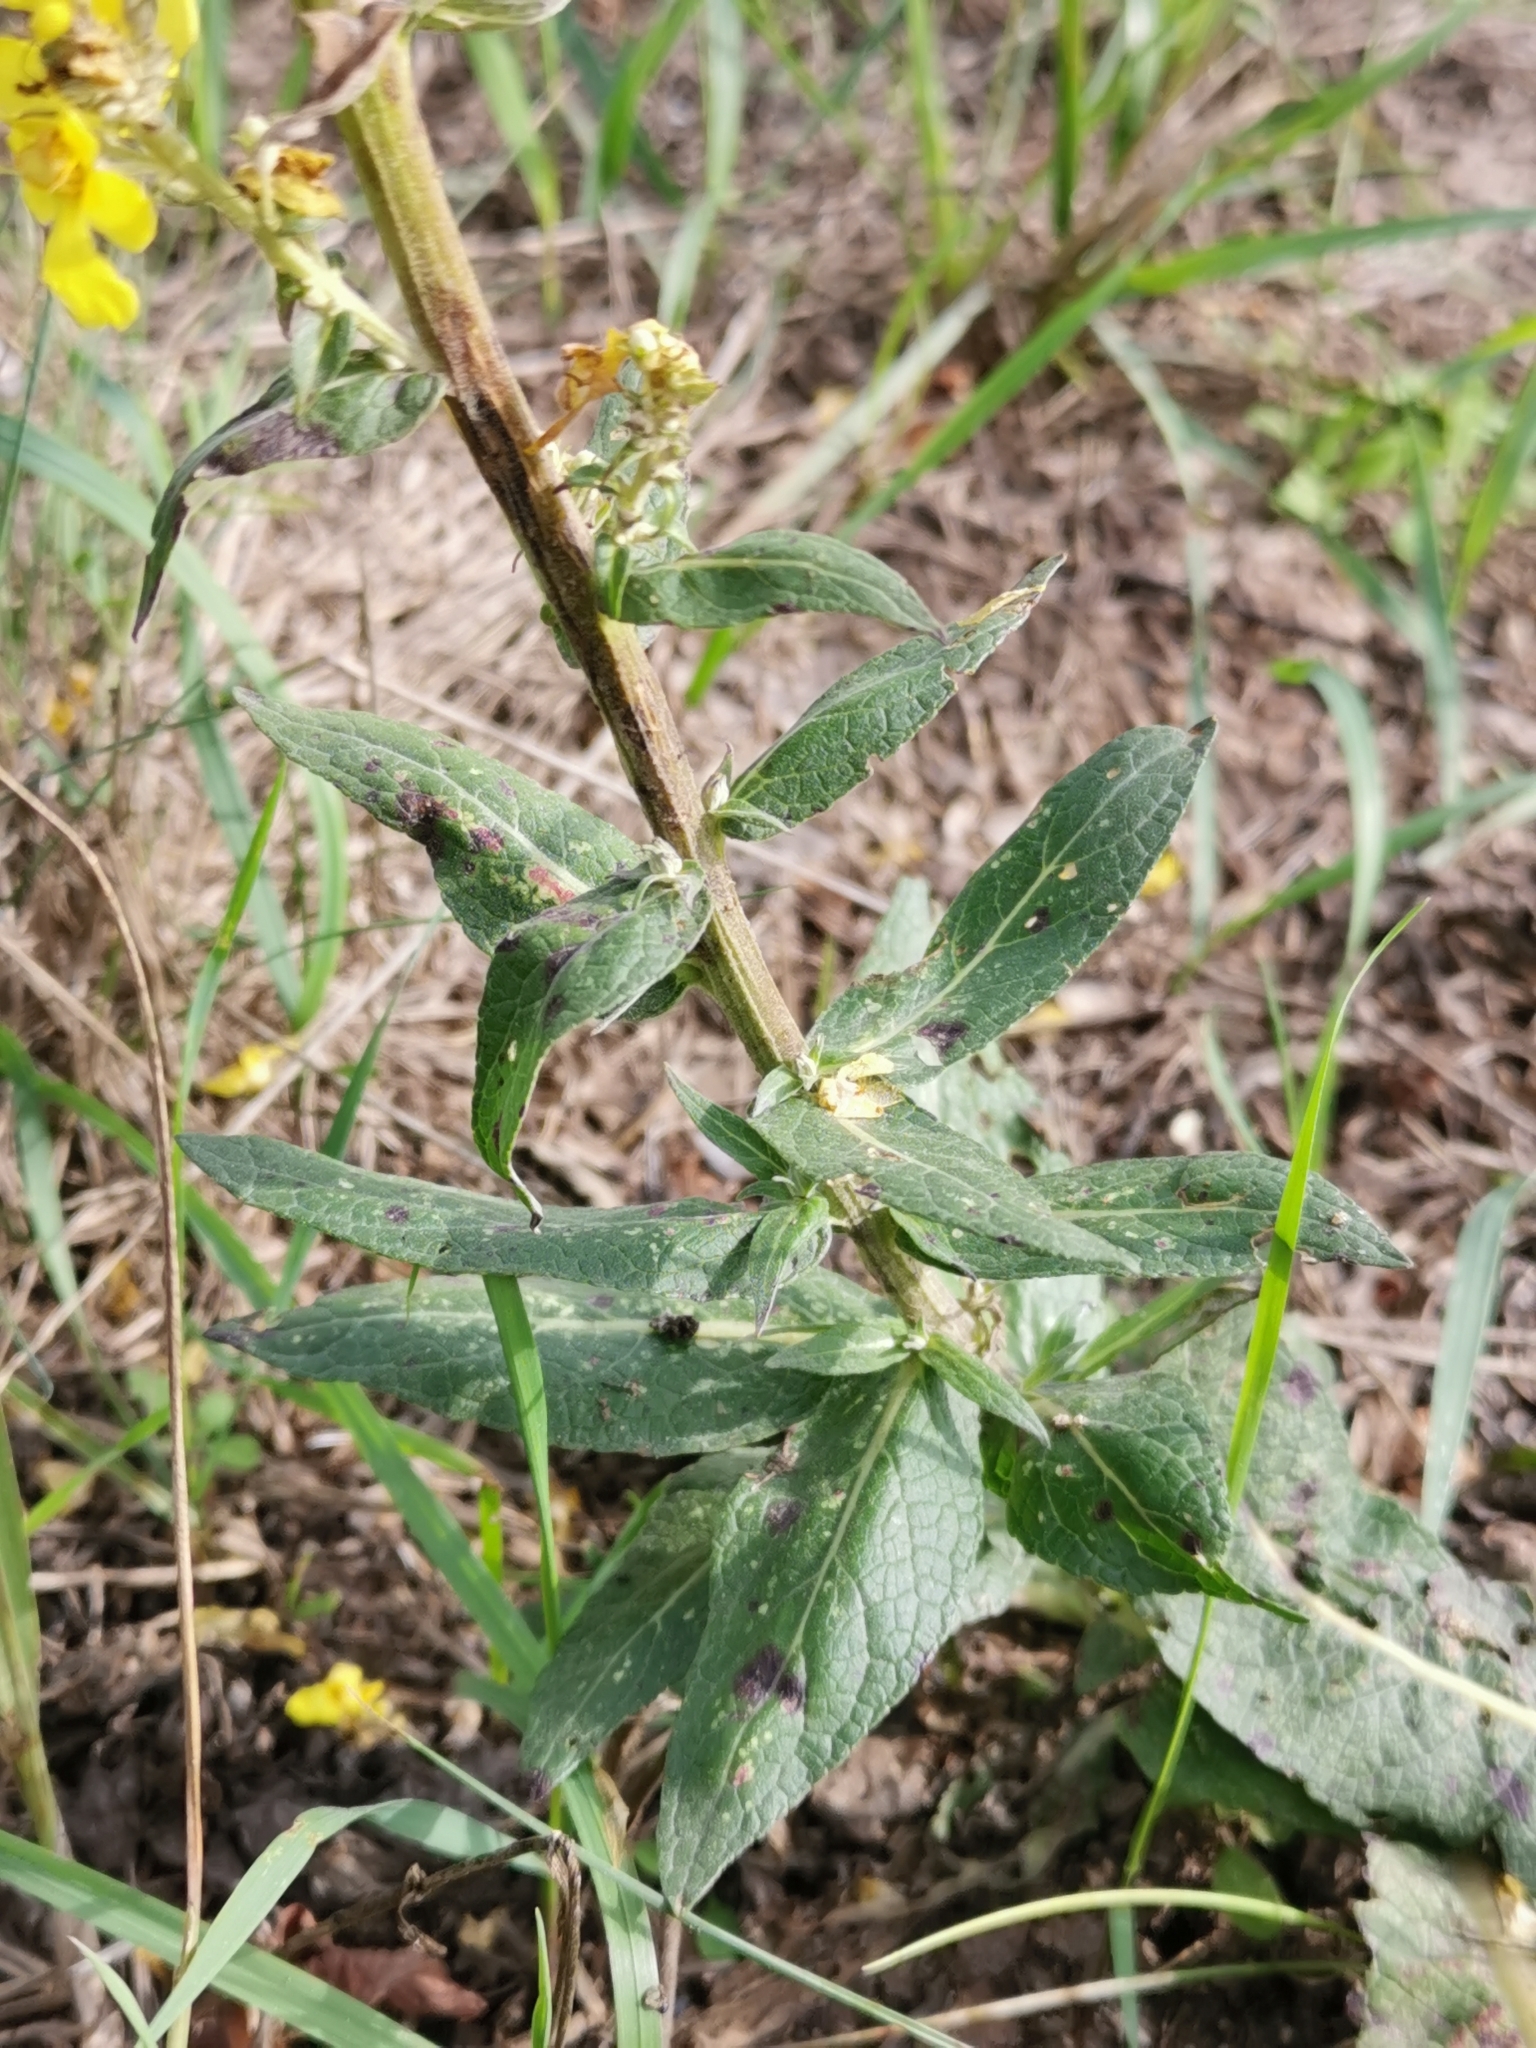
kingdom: Plantae
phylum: Tracheophyta
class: Magnoliopsida
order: Lamiales
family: Scrophulariaceae
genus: Verbascum
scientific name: Verbascum lychnitis
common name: White mullein
